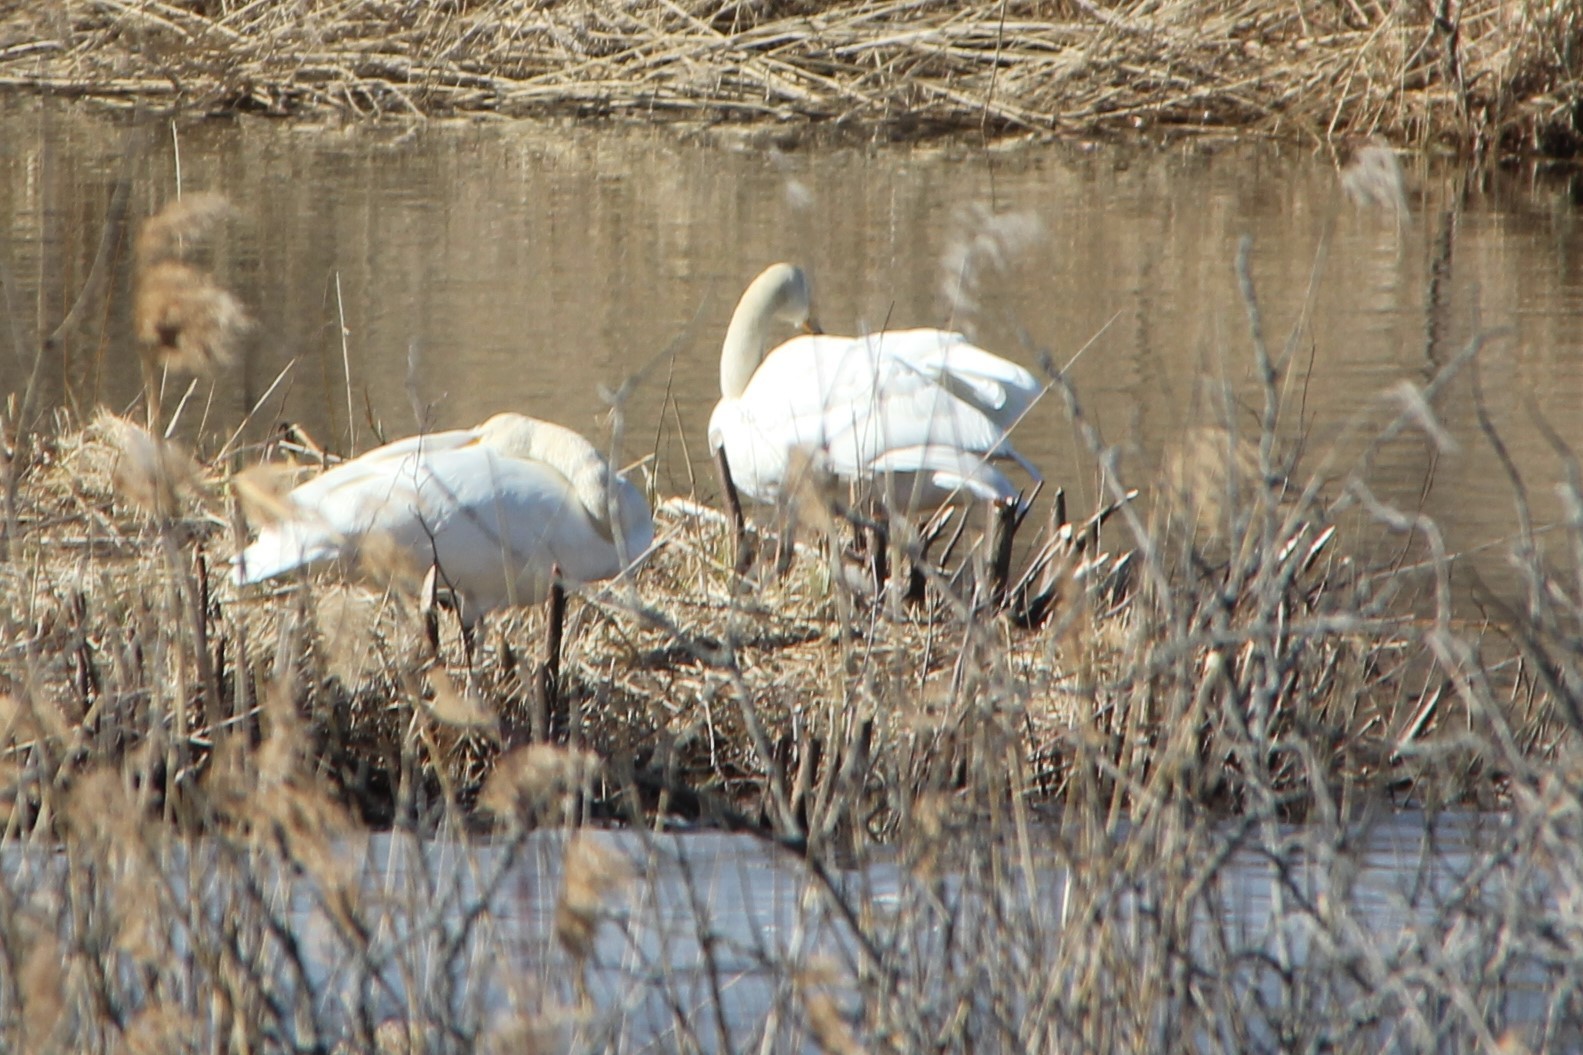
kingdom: Animalia
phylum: Chordata
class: Aves
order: Anseriformes
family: Anatidae
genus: Cygnus
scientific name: Cygnus cygnus
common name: Whooper swan
